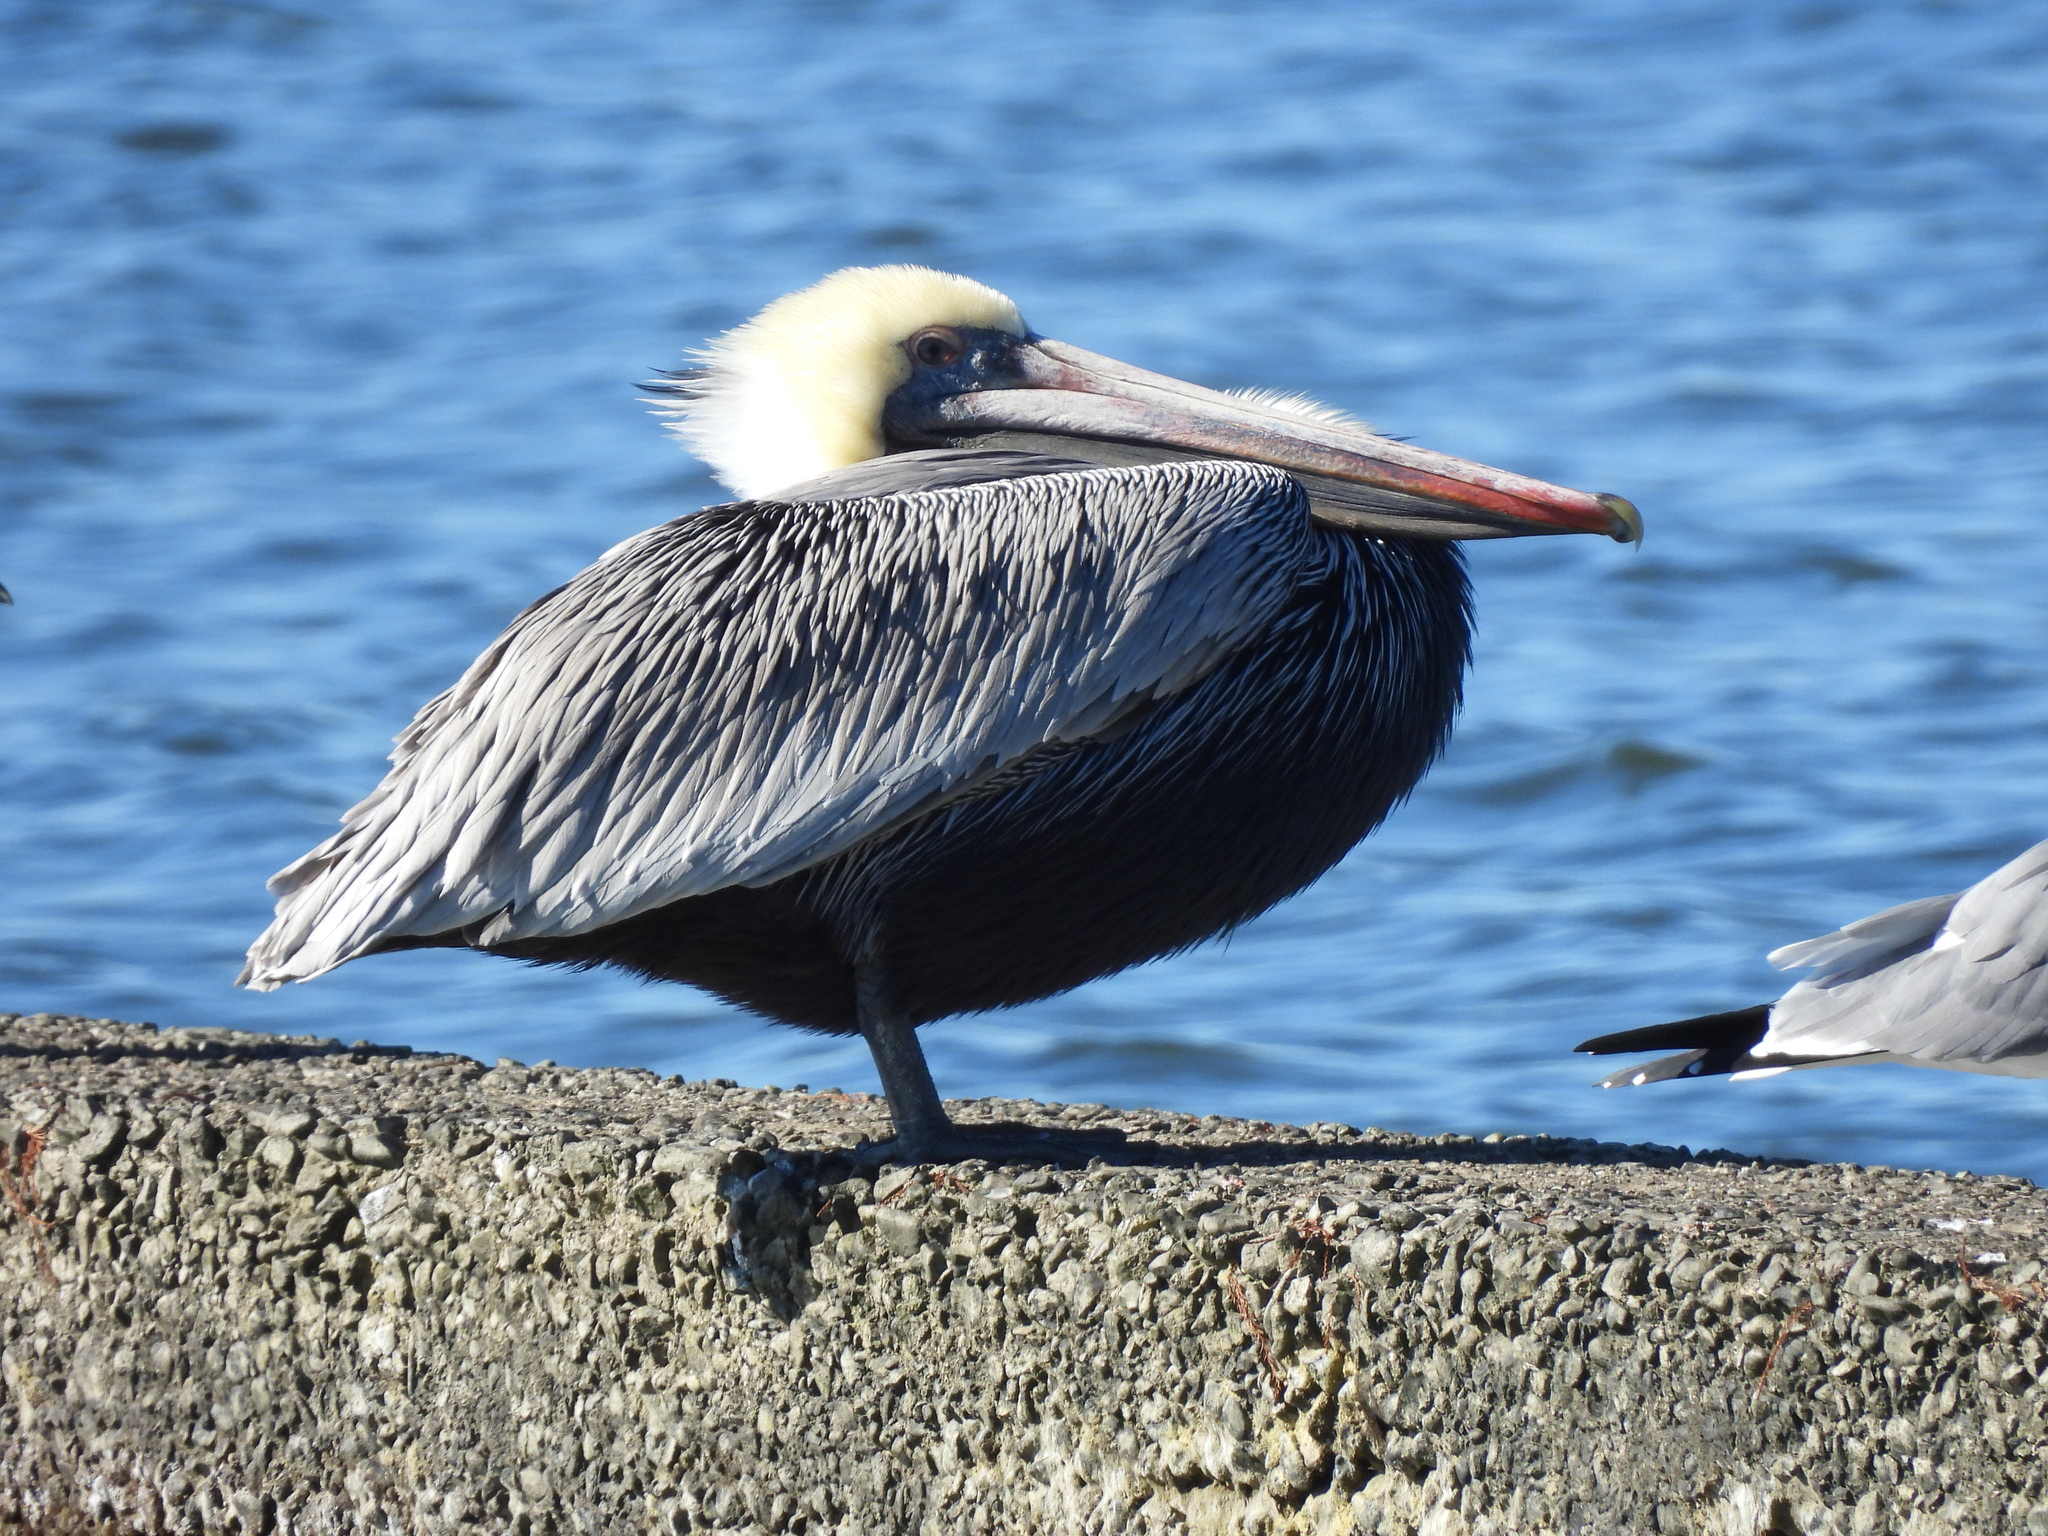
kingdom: Animalia
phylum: Chordata
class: Aves
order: Pelecaniformes
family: Pelecanidae
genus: Pelecanus
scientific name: Pelecanus occidentalis
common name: Brown pelican
